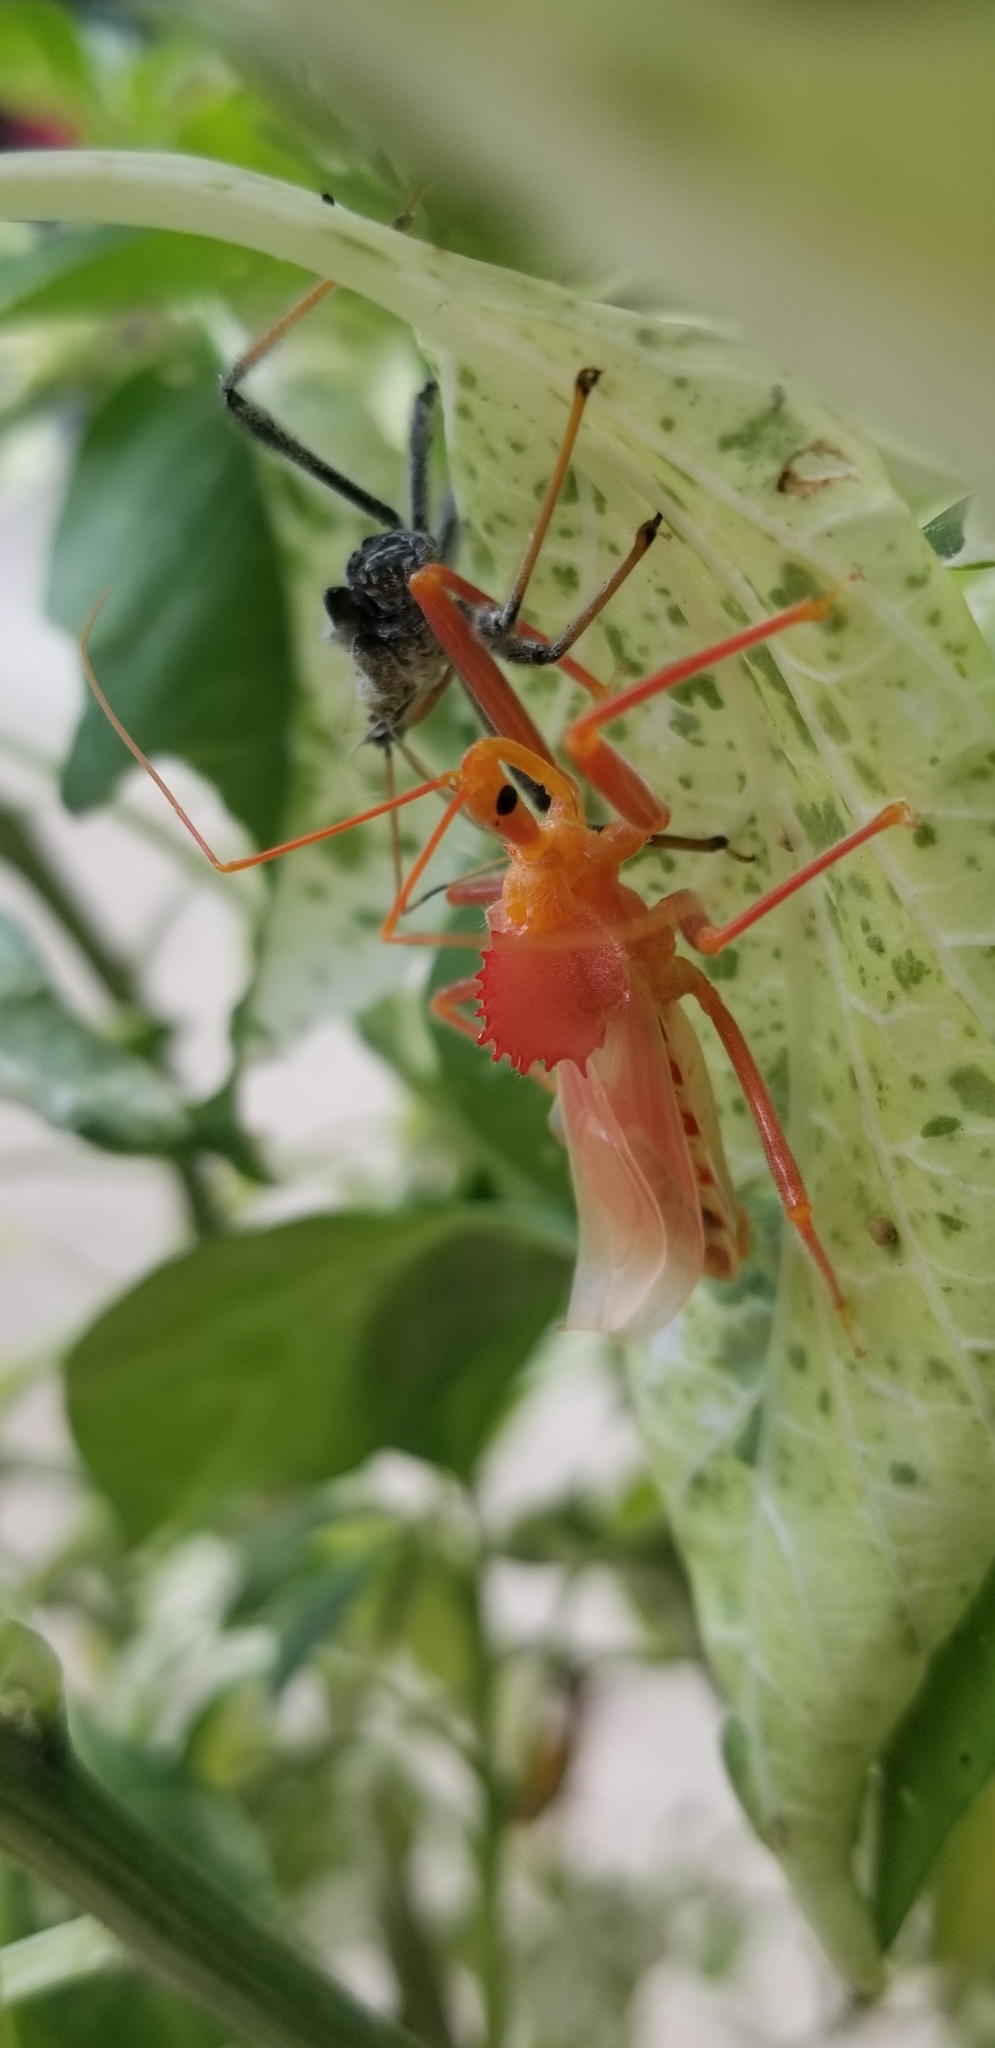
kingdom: Animalia
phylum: Arthropoda
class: Insecta
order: Hemiptera
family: Reduviidae
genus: Arilus
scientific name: Arilus cristatus
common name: North american wheel bug
